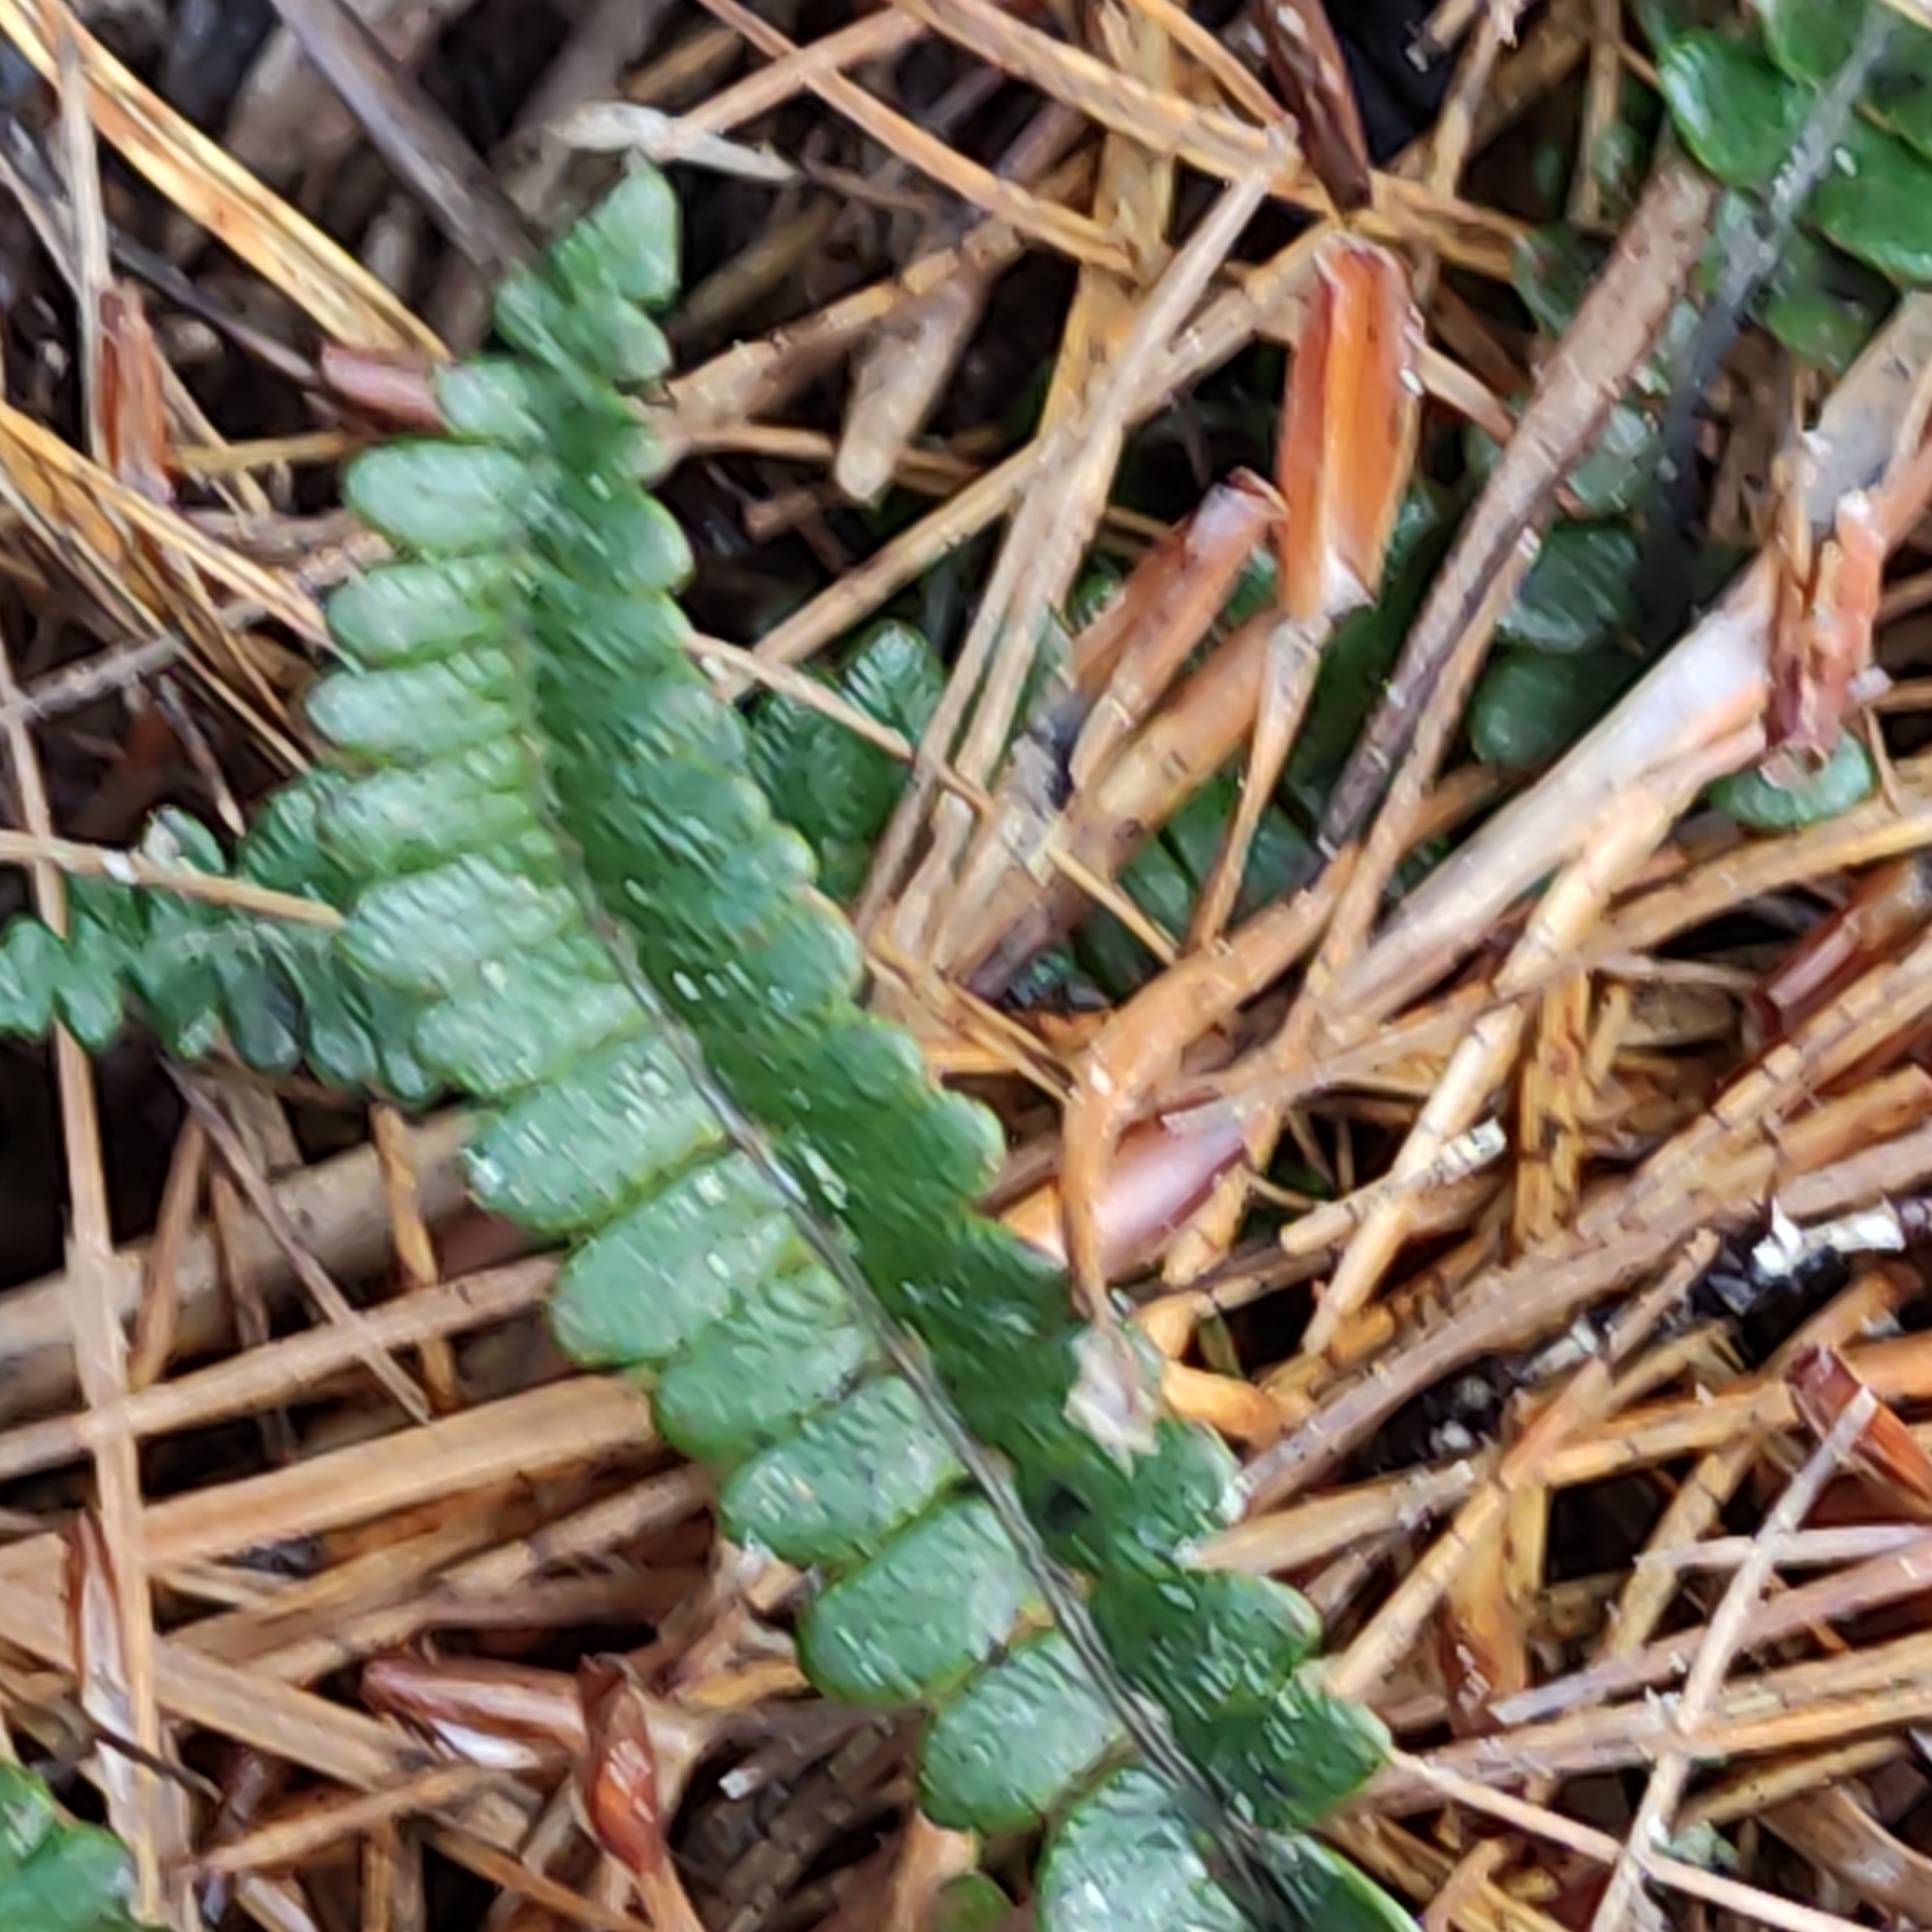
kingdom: Plantae
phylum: Tracheophyta
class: Polypodiopsida
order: Polypodiales
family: Blechnaceae
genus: Austroblechnum
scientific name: Austroblechnum penna-marina
